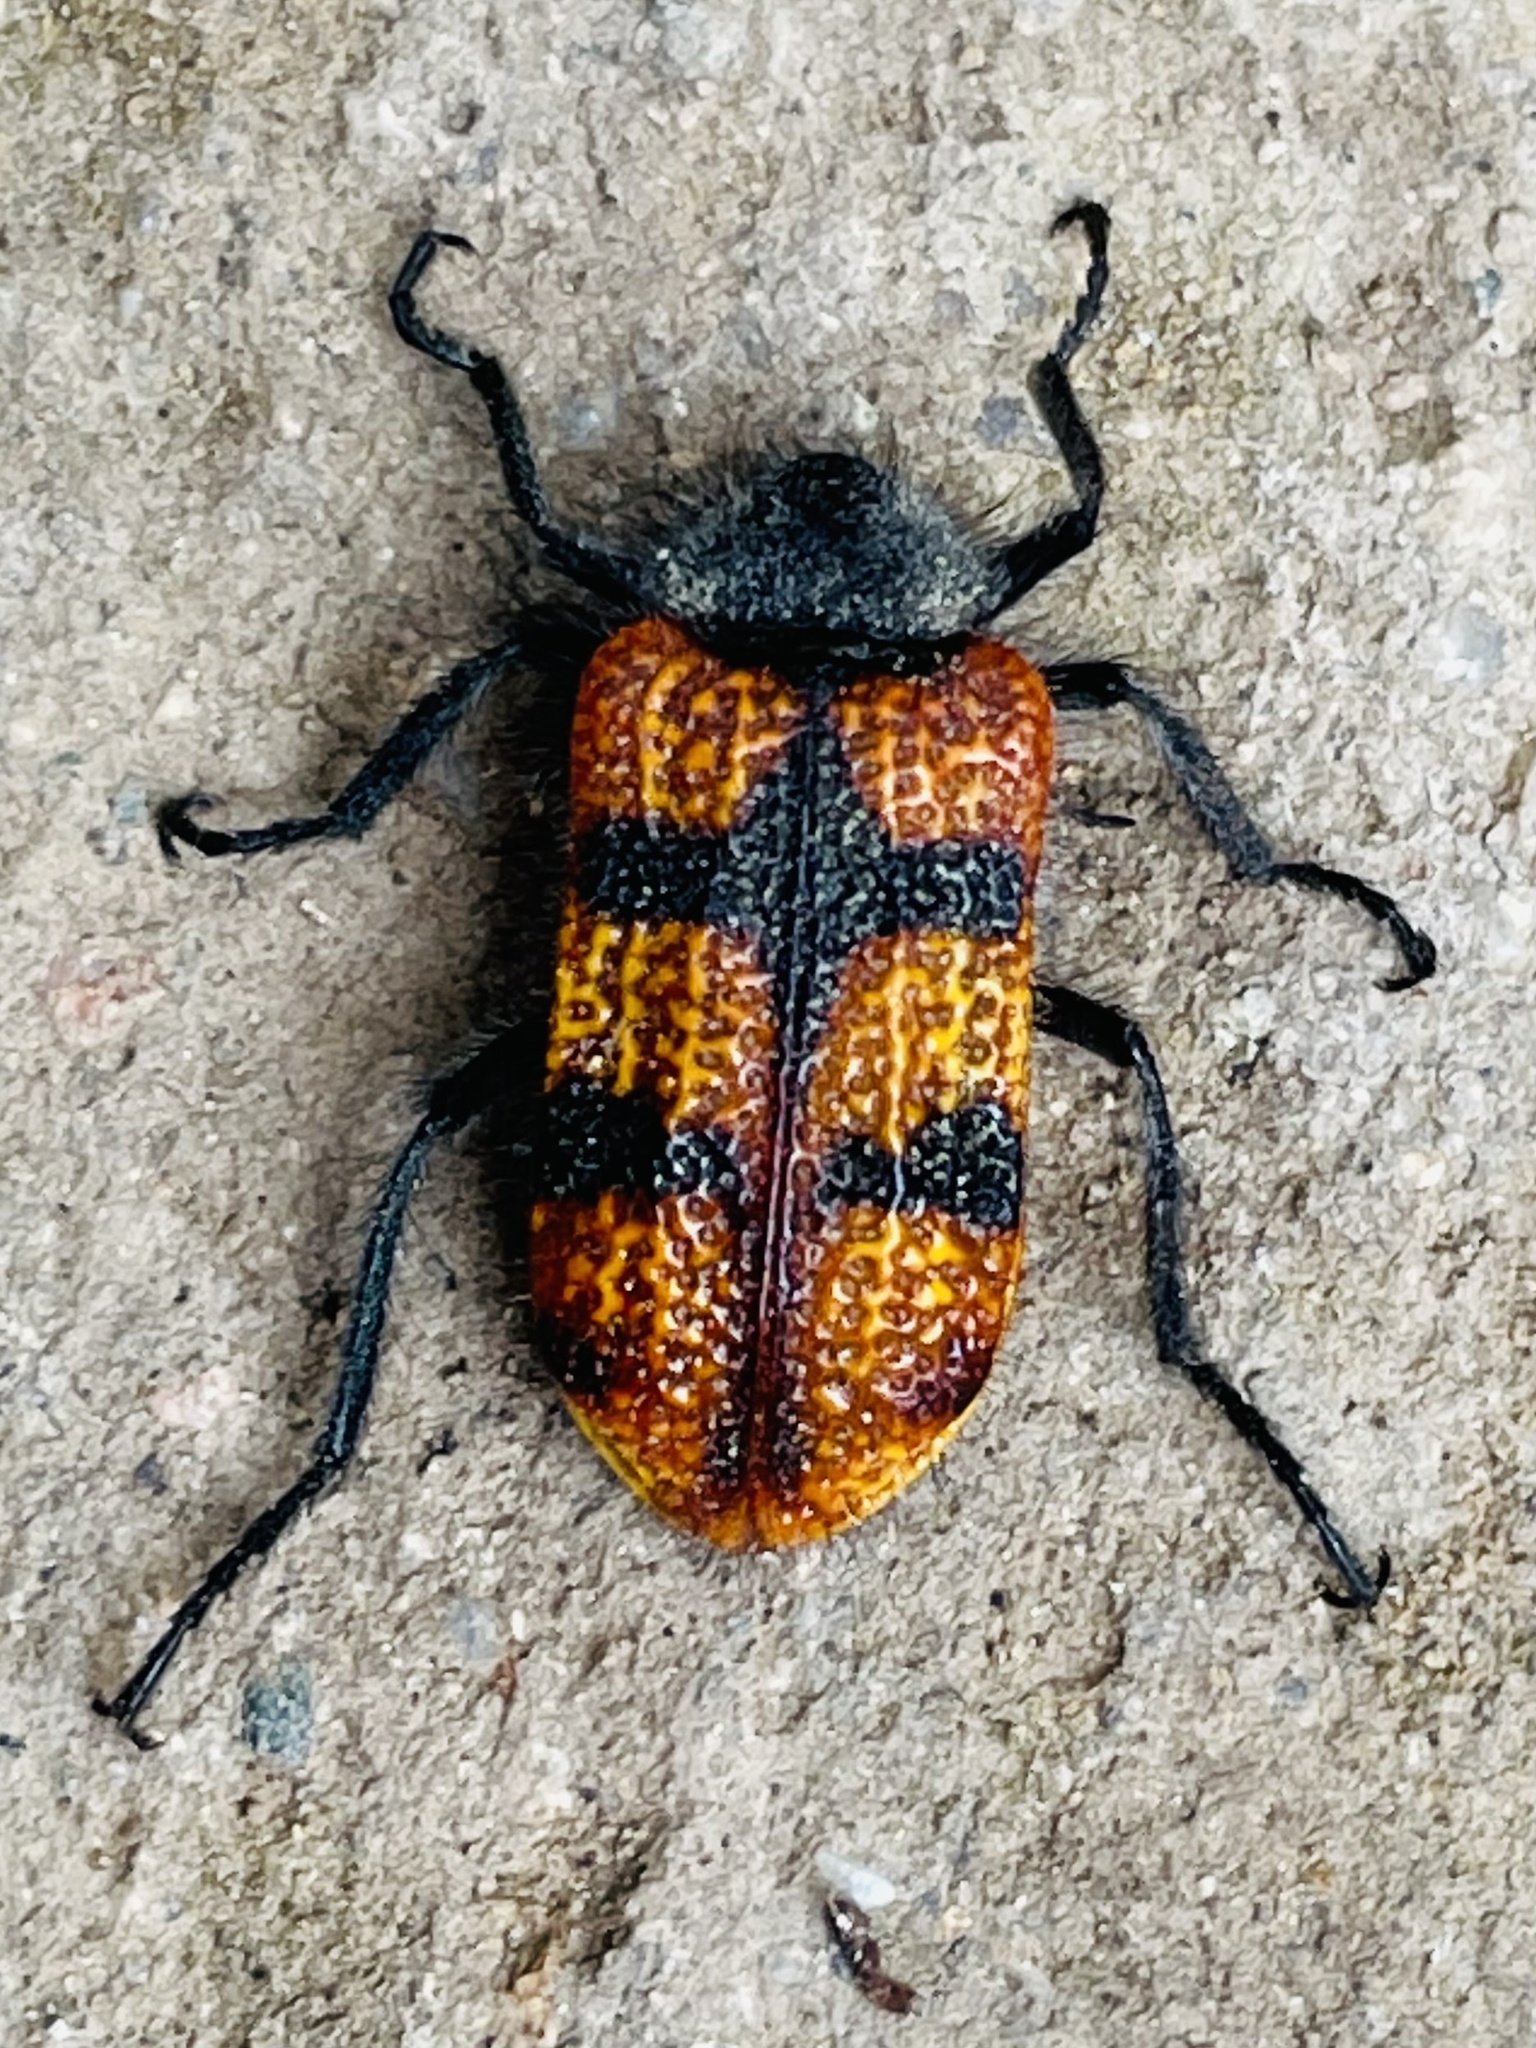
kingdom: Animalia
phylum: Arthropoda
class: Insecta
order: Coleoptera
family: Melyridae
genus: Astylus
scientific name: Astylus
